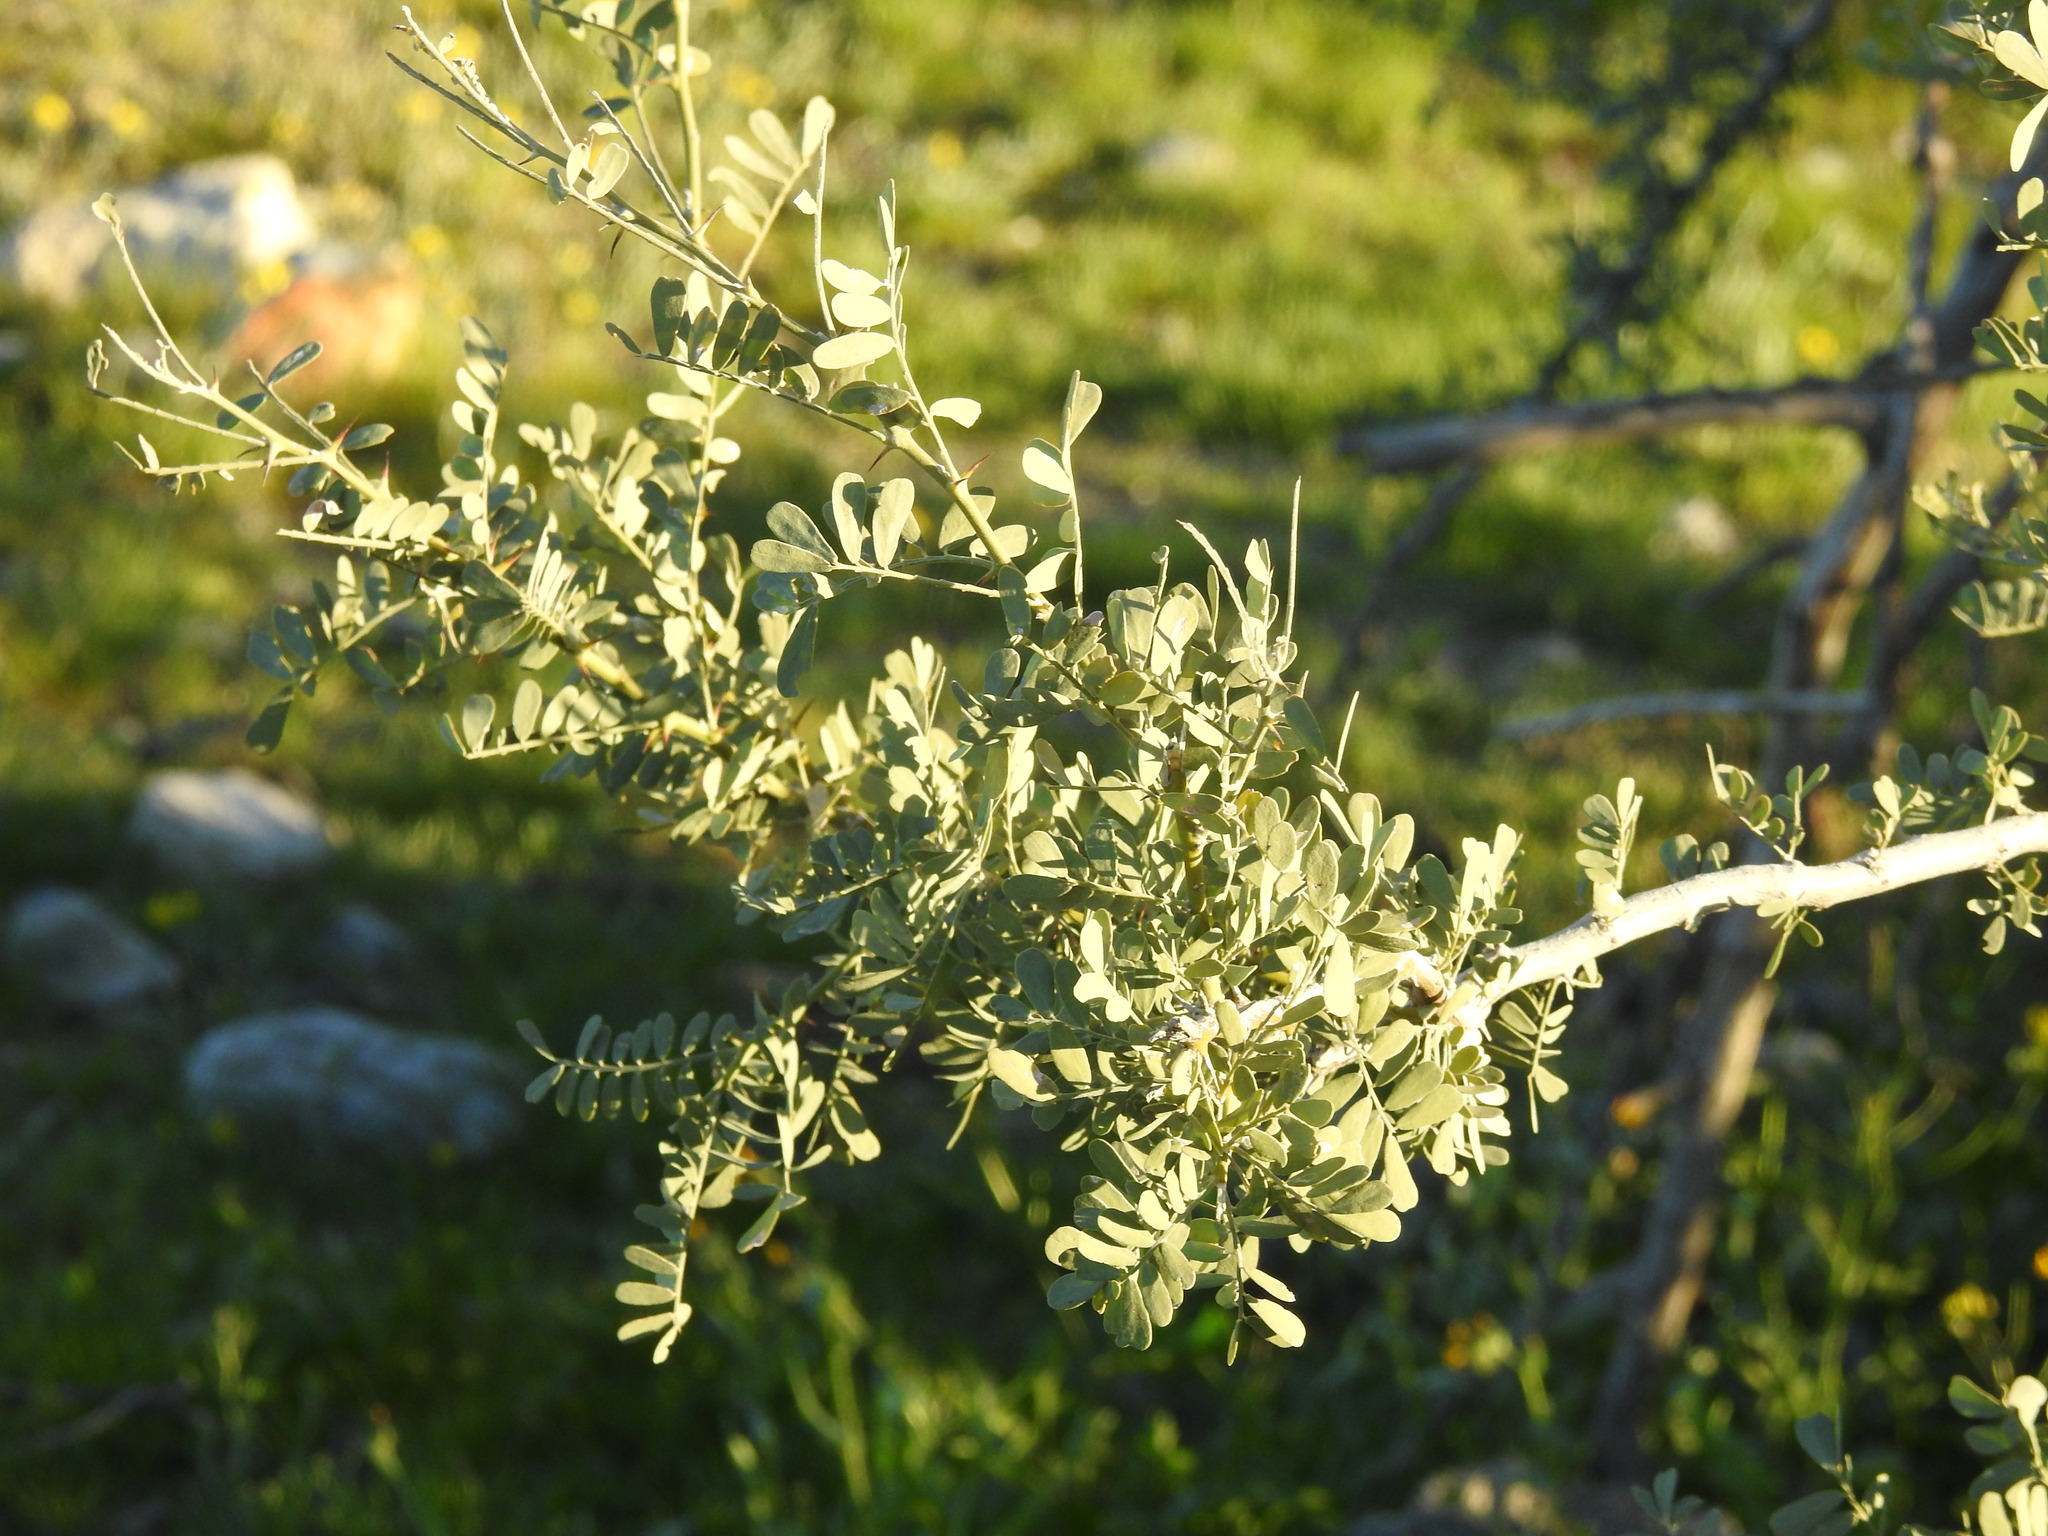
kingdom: Plantae
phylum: Tracheophyta
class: Magnoliopsida
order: Fabales
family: Fabaceae
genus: Olneya
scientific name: Olneya tesota
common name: Desert ironwood
